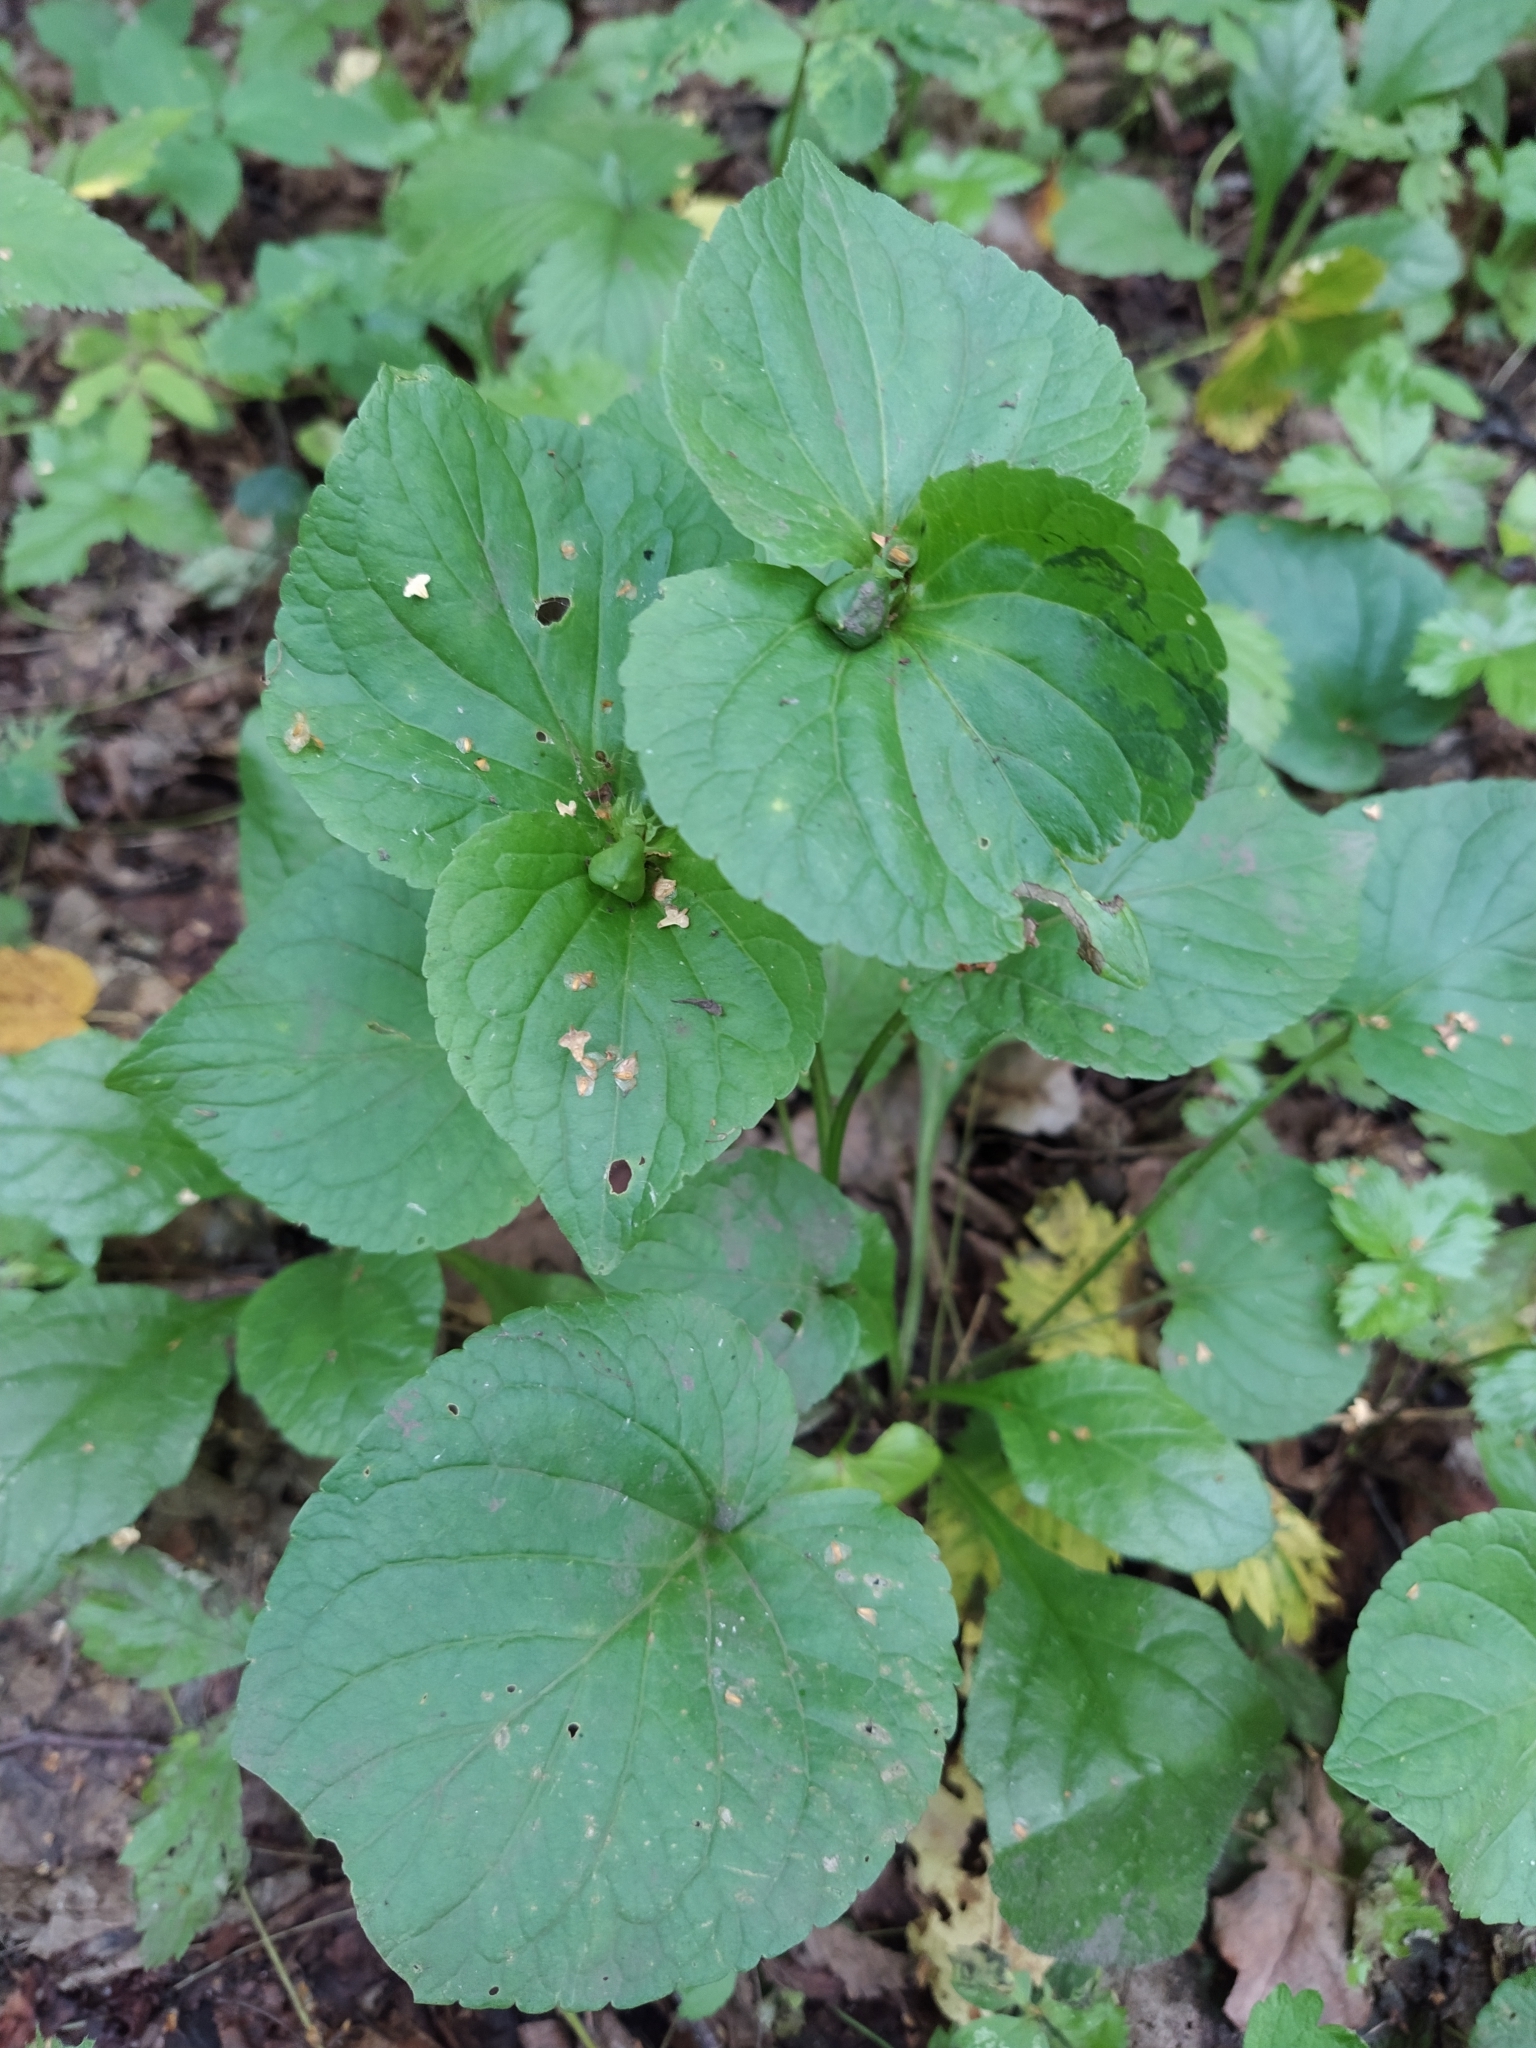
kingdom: Plantae
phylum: Tracheophyta
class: Magnoliopsida
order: Malpighiales
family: Violaceae
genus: Viola
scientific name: Viola mirabilis
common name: Wonder violet
